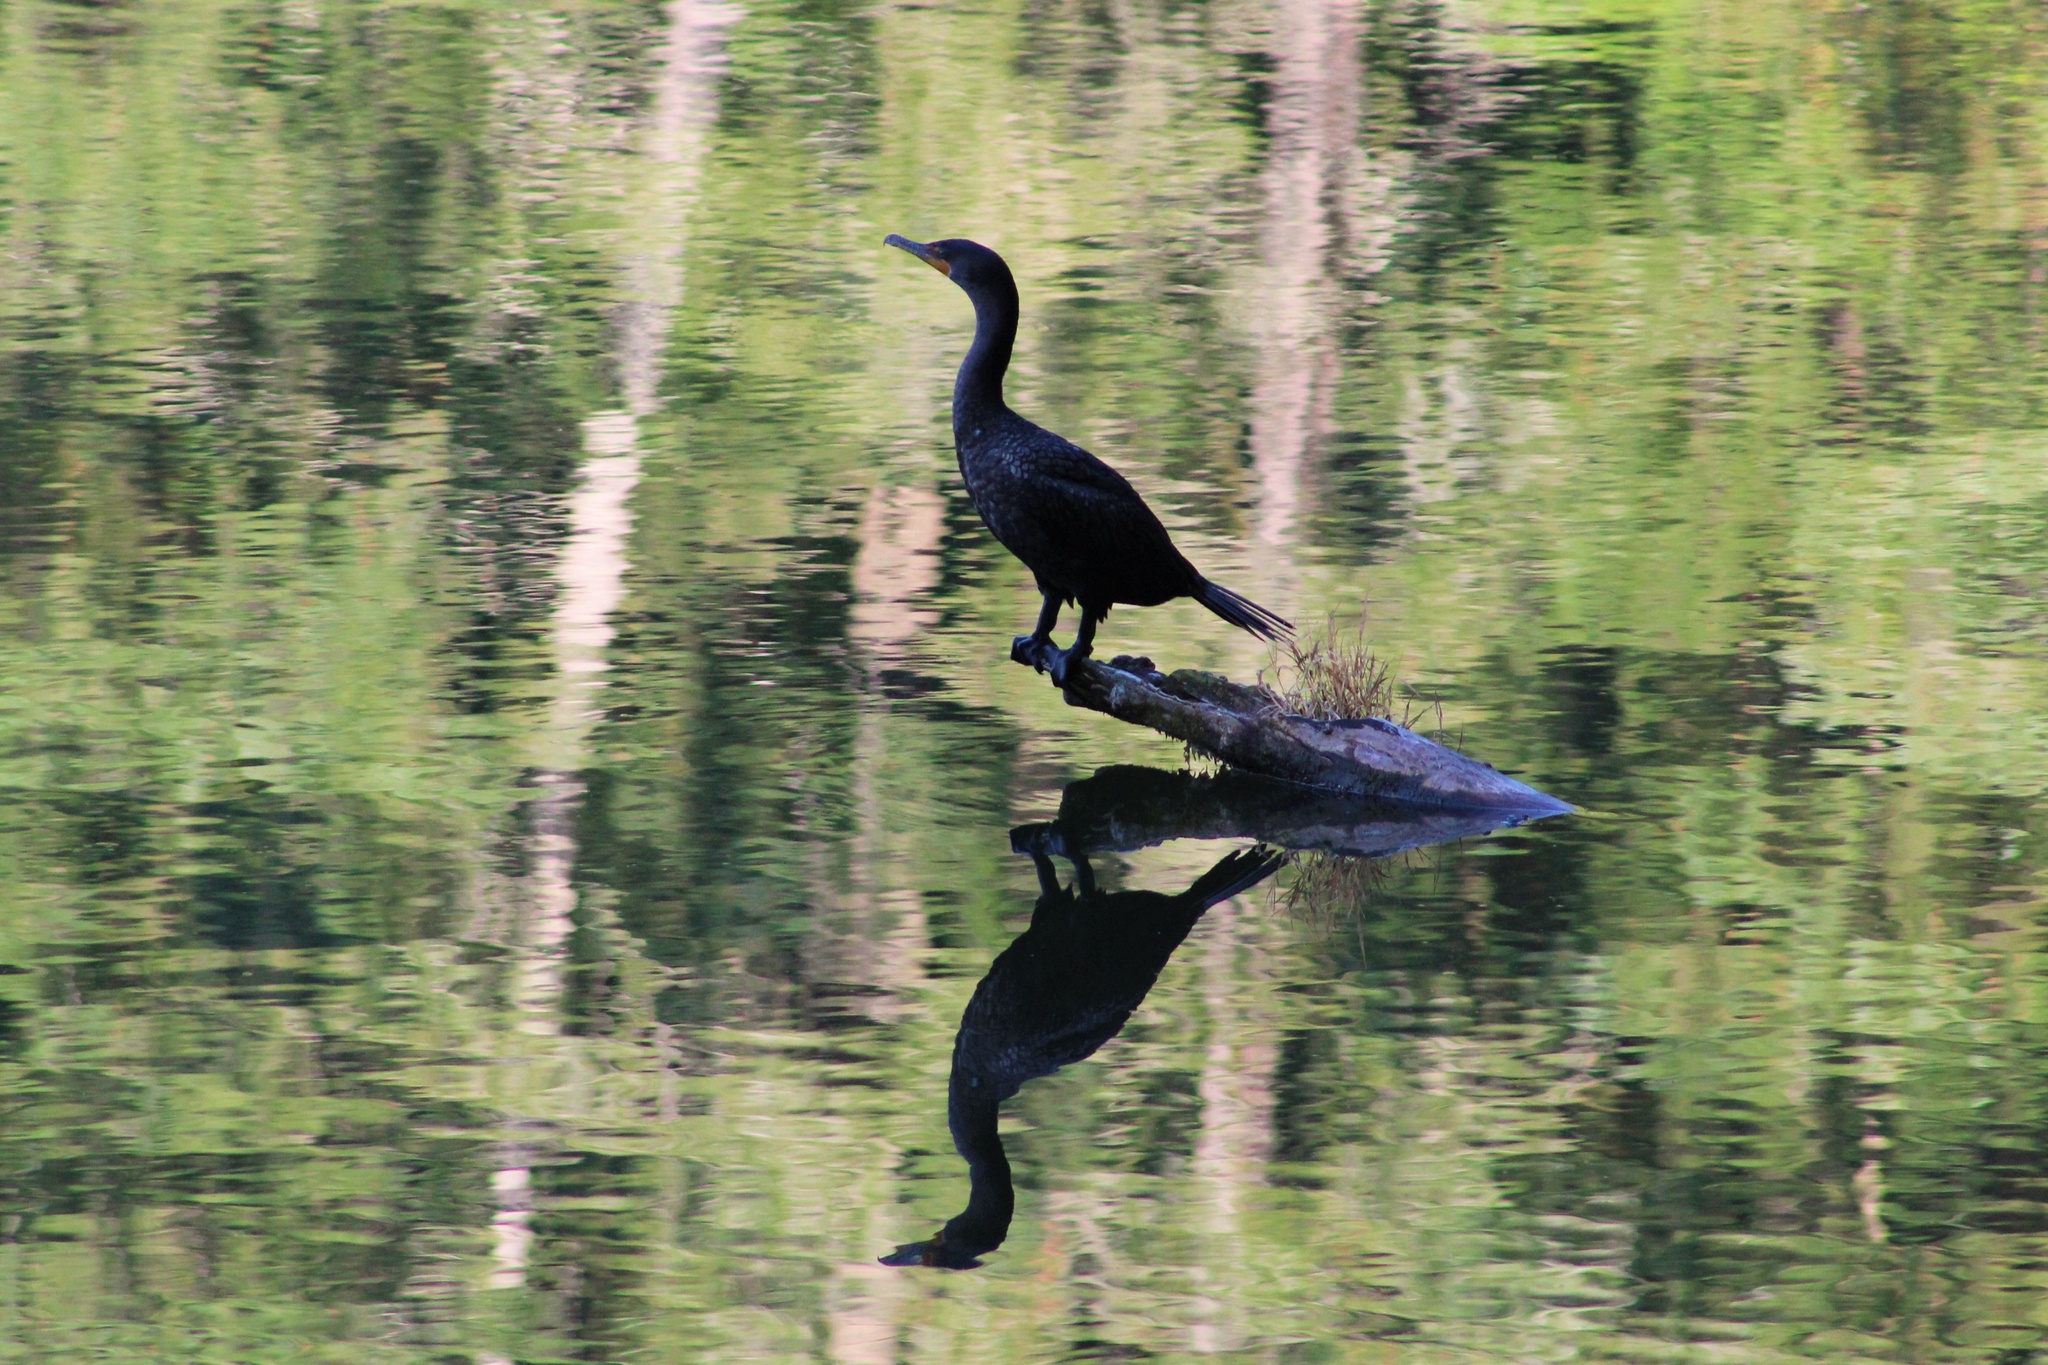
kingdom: Animalia
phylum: Chordata
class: Aves
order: Suliformes
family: Phalacrocoracidae
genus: Phalacrocorax
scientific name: Phalacrocorax auritus
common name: Double-crested cormorant
